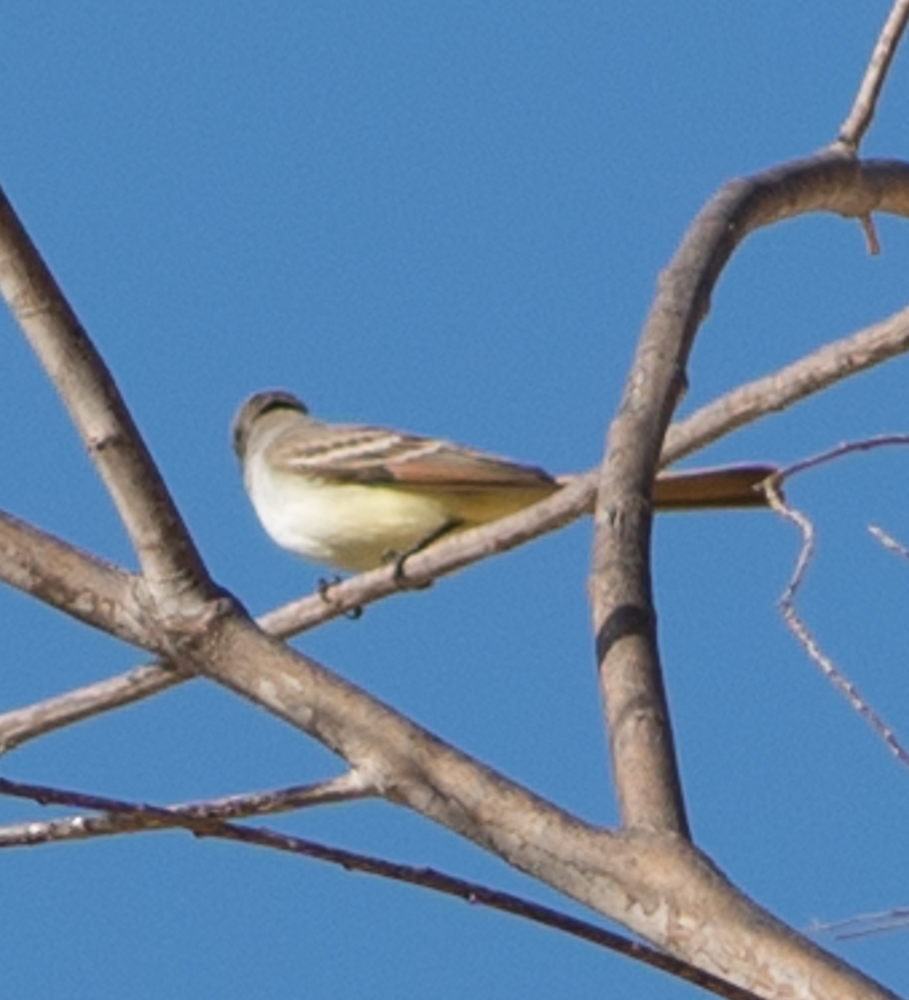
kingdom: Animalia
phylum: Chordata
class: Aves
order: Passeriformes
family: Tyrannidae
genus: Myiarchus
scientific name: Myiarchus cinerascens
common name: Ash-throated flycatcher
